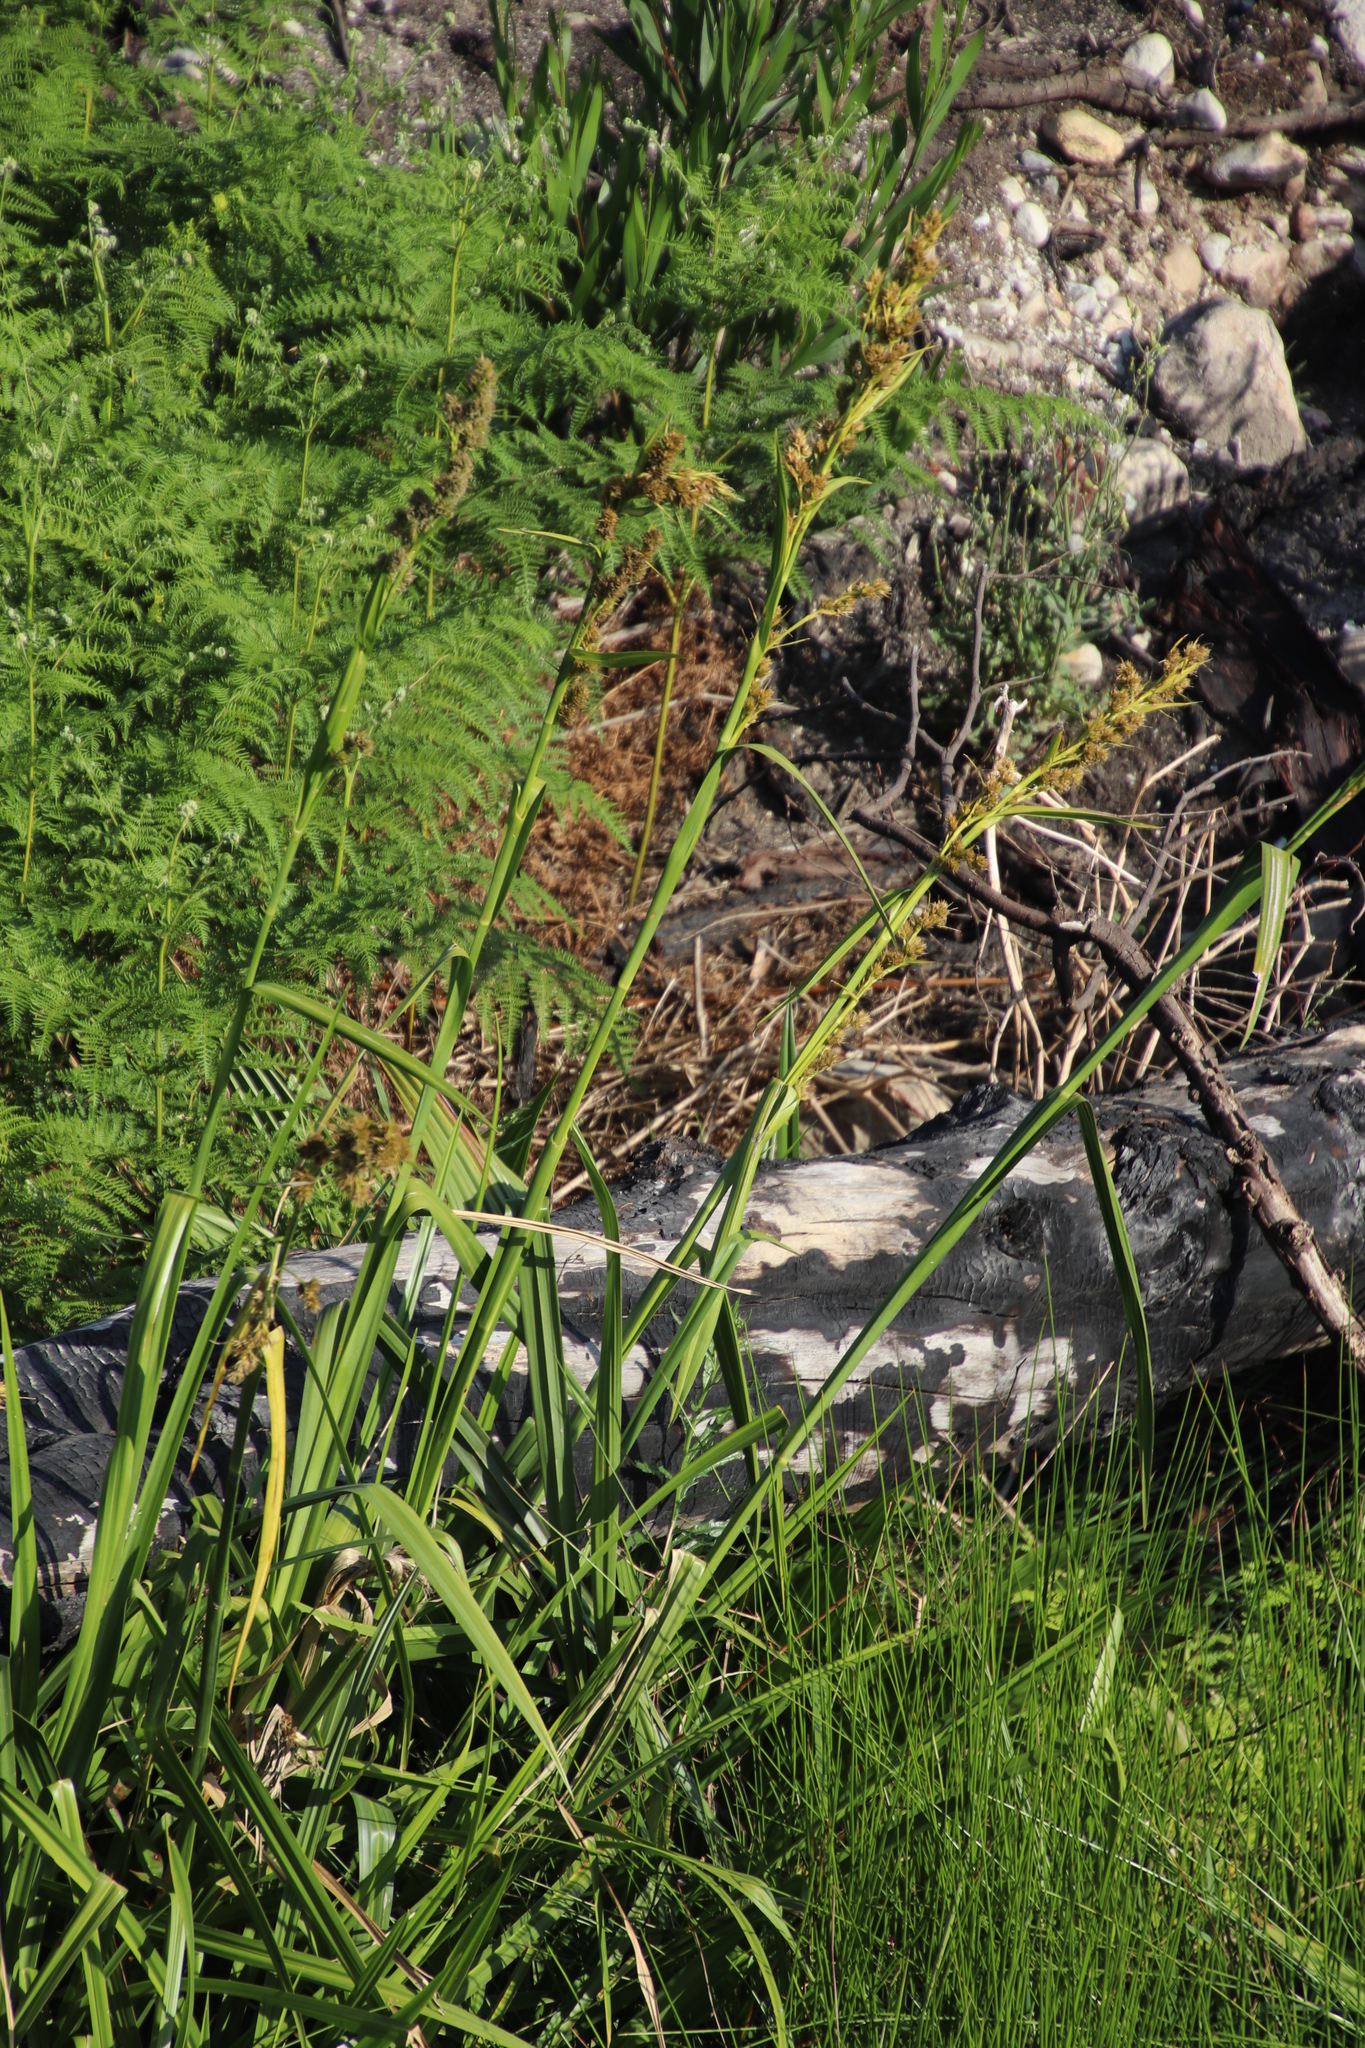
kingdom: Plantae
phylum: Tracheophyta
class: Liliopsida
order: Poales
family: Cyperaceae
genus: Carpha
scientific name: Carpha glomerata
